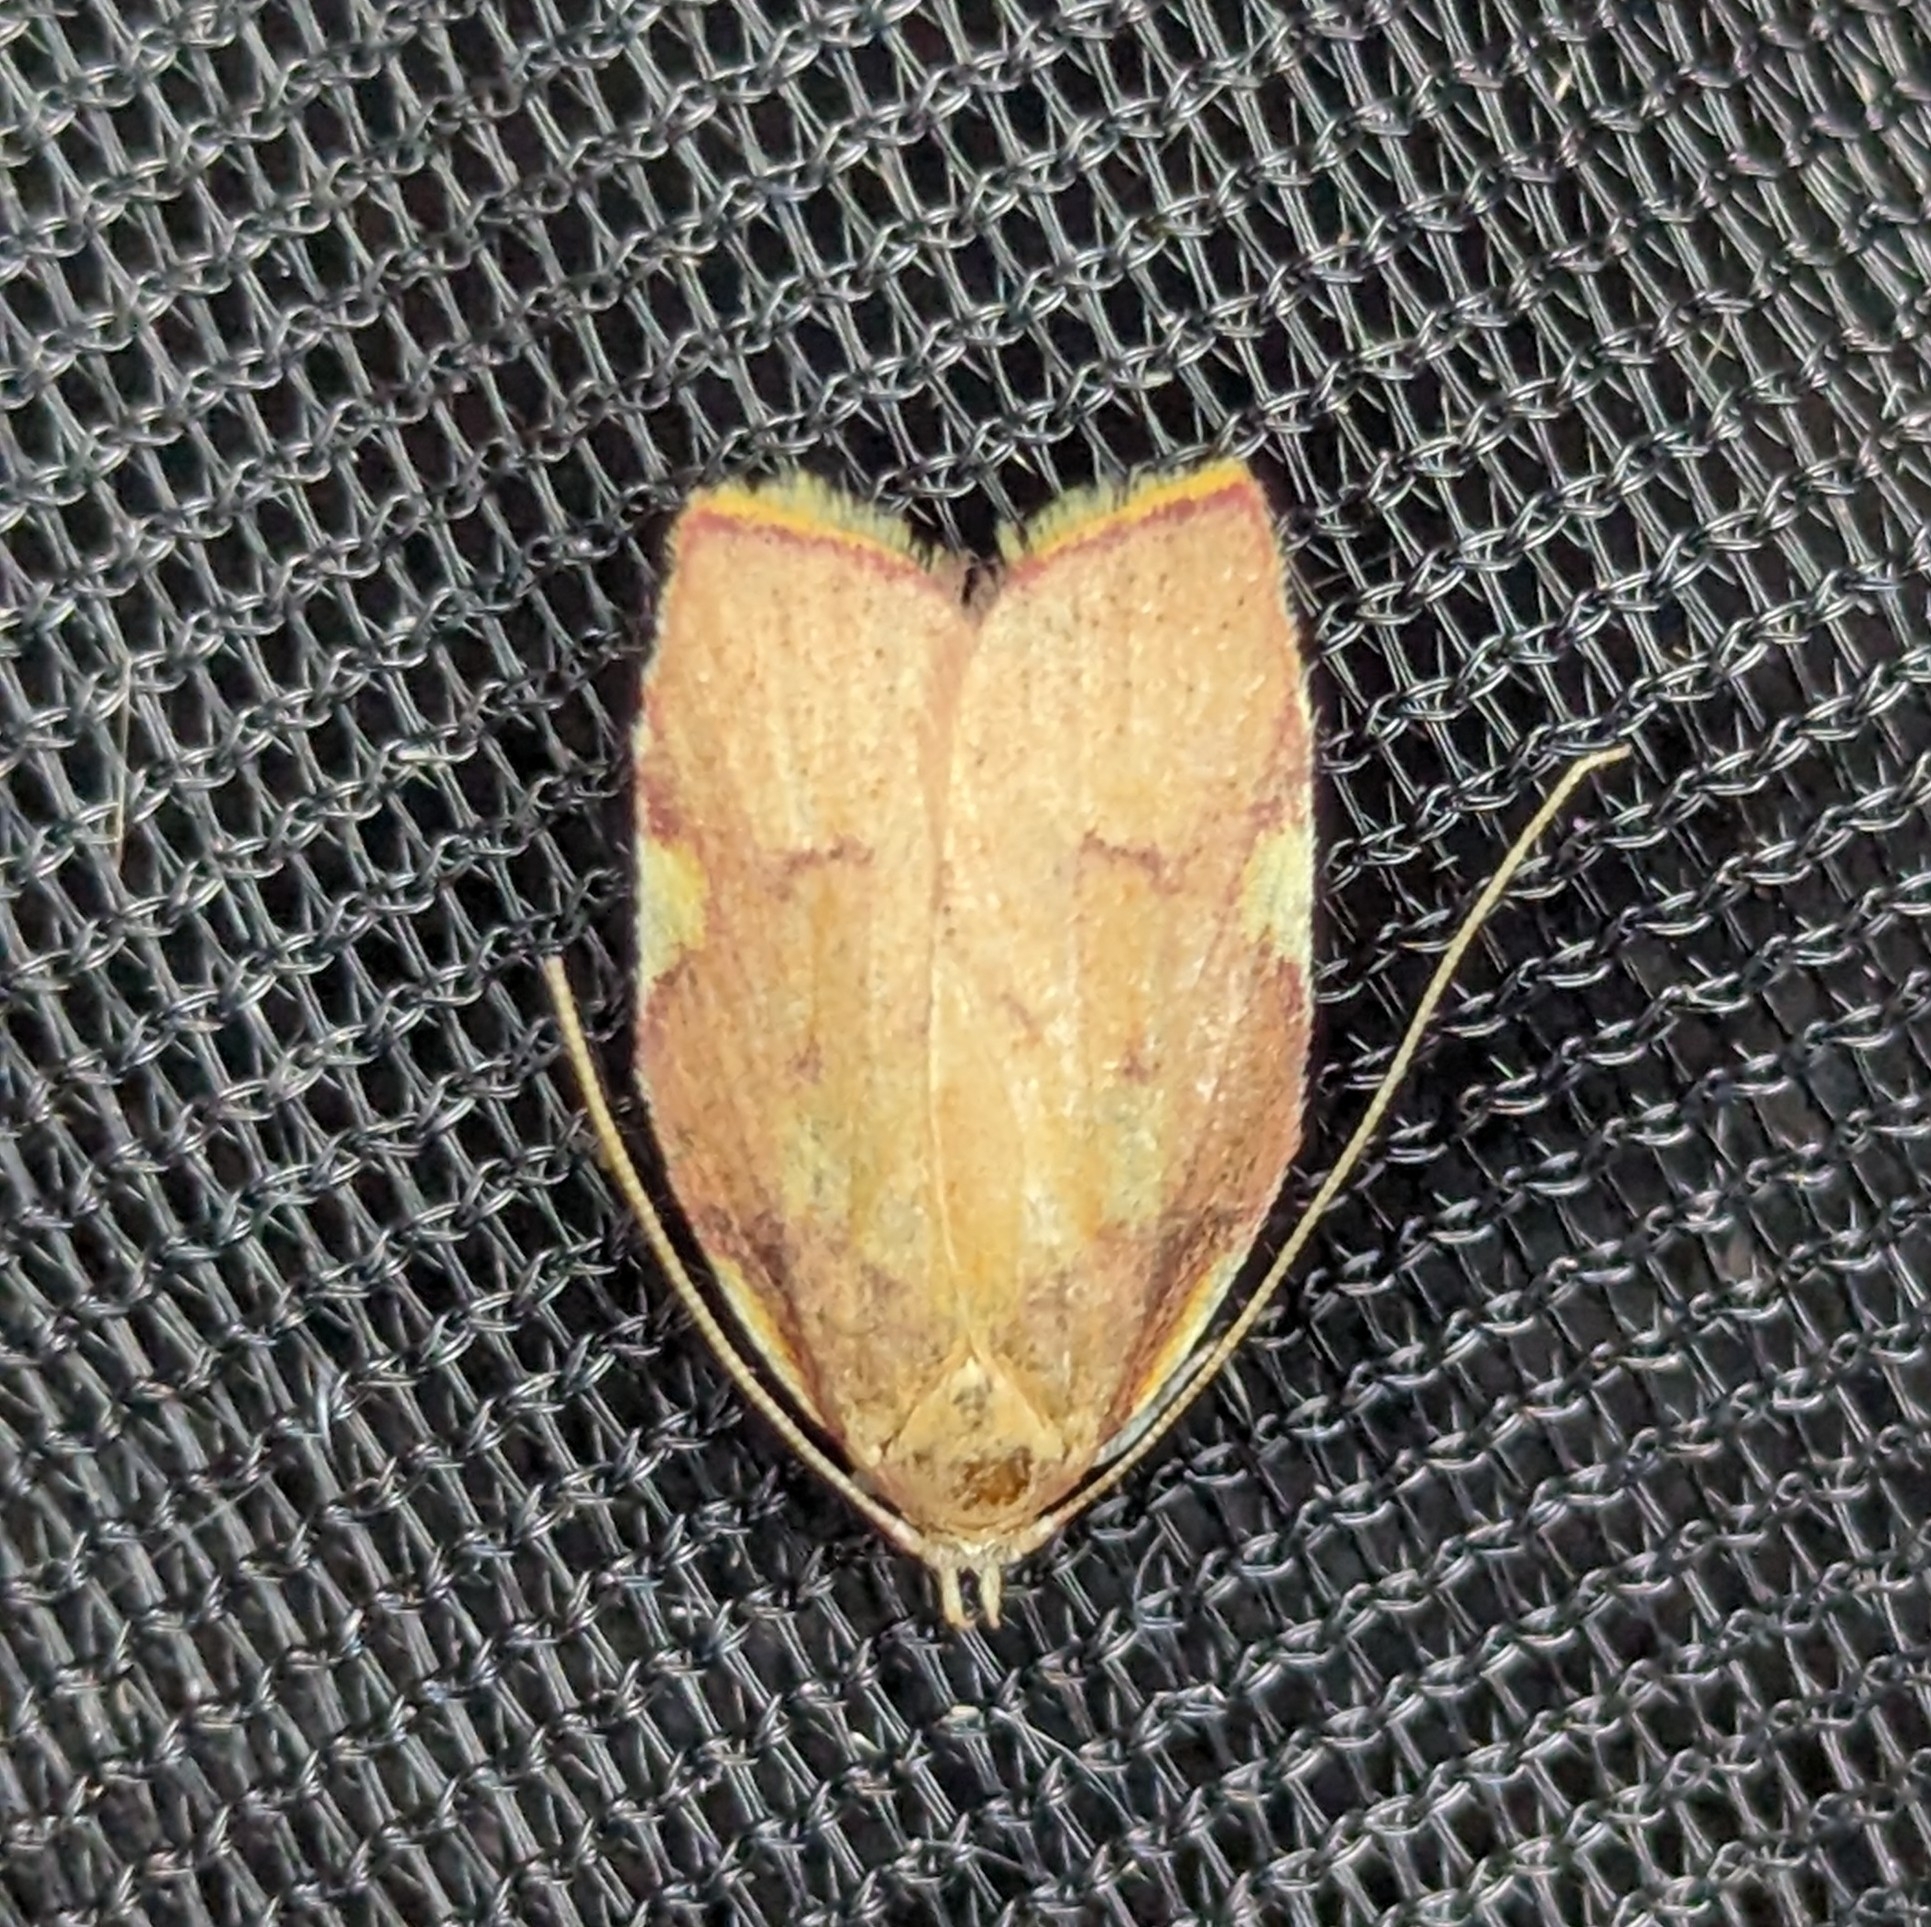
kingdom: Animalia
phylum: Arthropoda
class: Insecta
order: Lepidoptera
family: Peleopodidae
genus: Carcina
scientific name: Carcina quercana
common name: Moth
